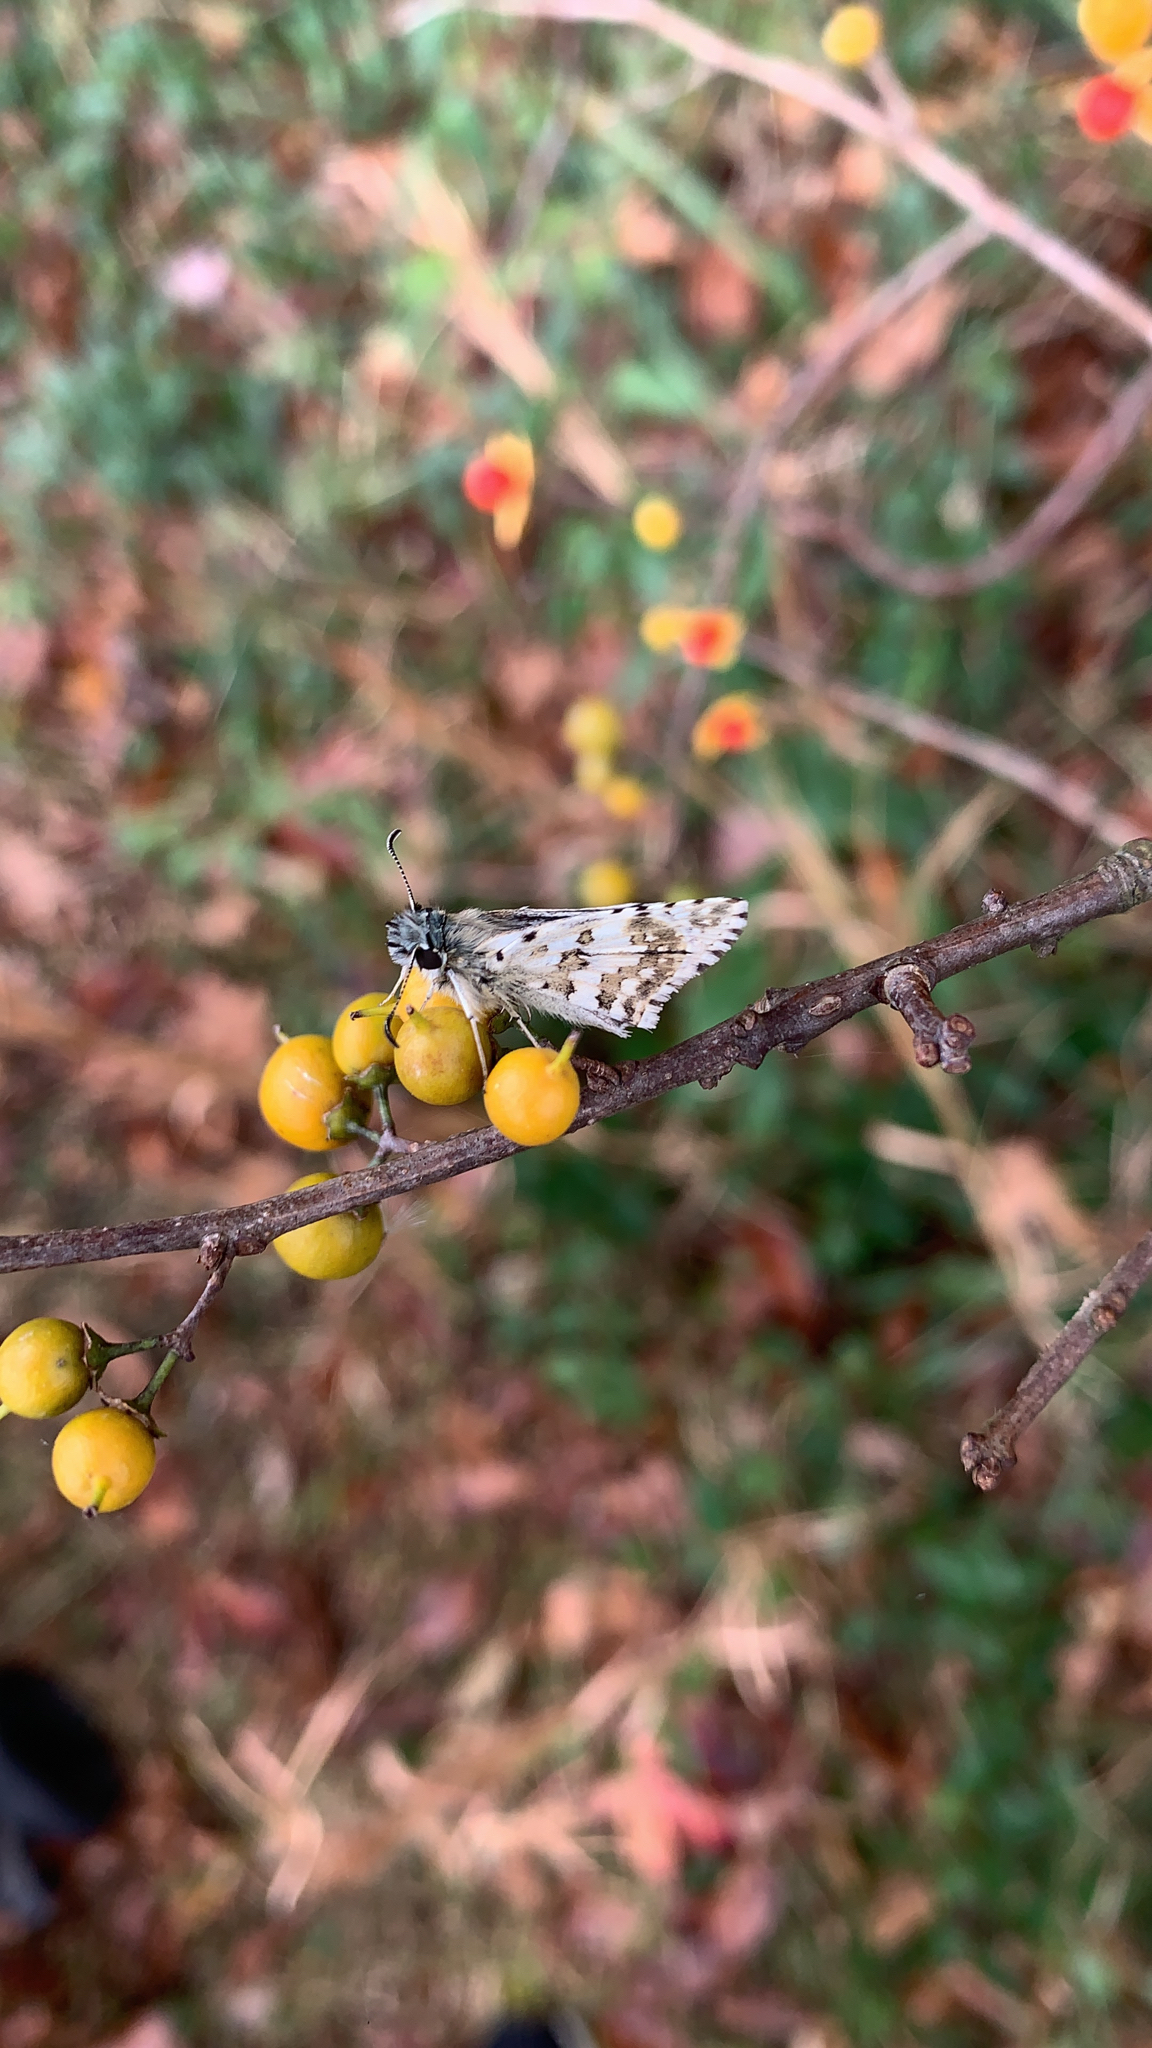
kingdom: Animalia
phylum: Arthropoda
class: Insecta
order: Lepidoptera
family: Hesperiidae
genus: Burnsius
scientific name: Burnsius communis
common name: Common checkered-skipper
